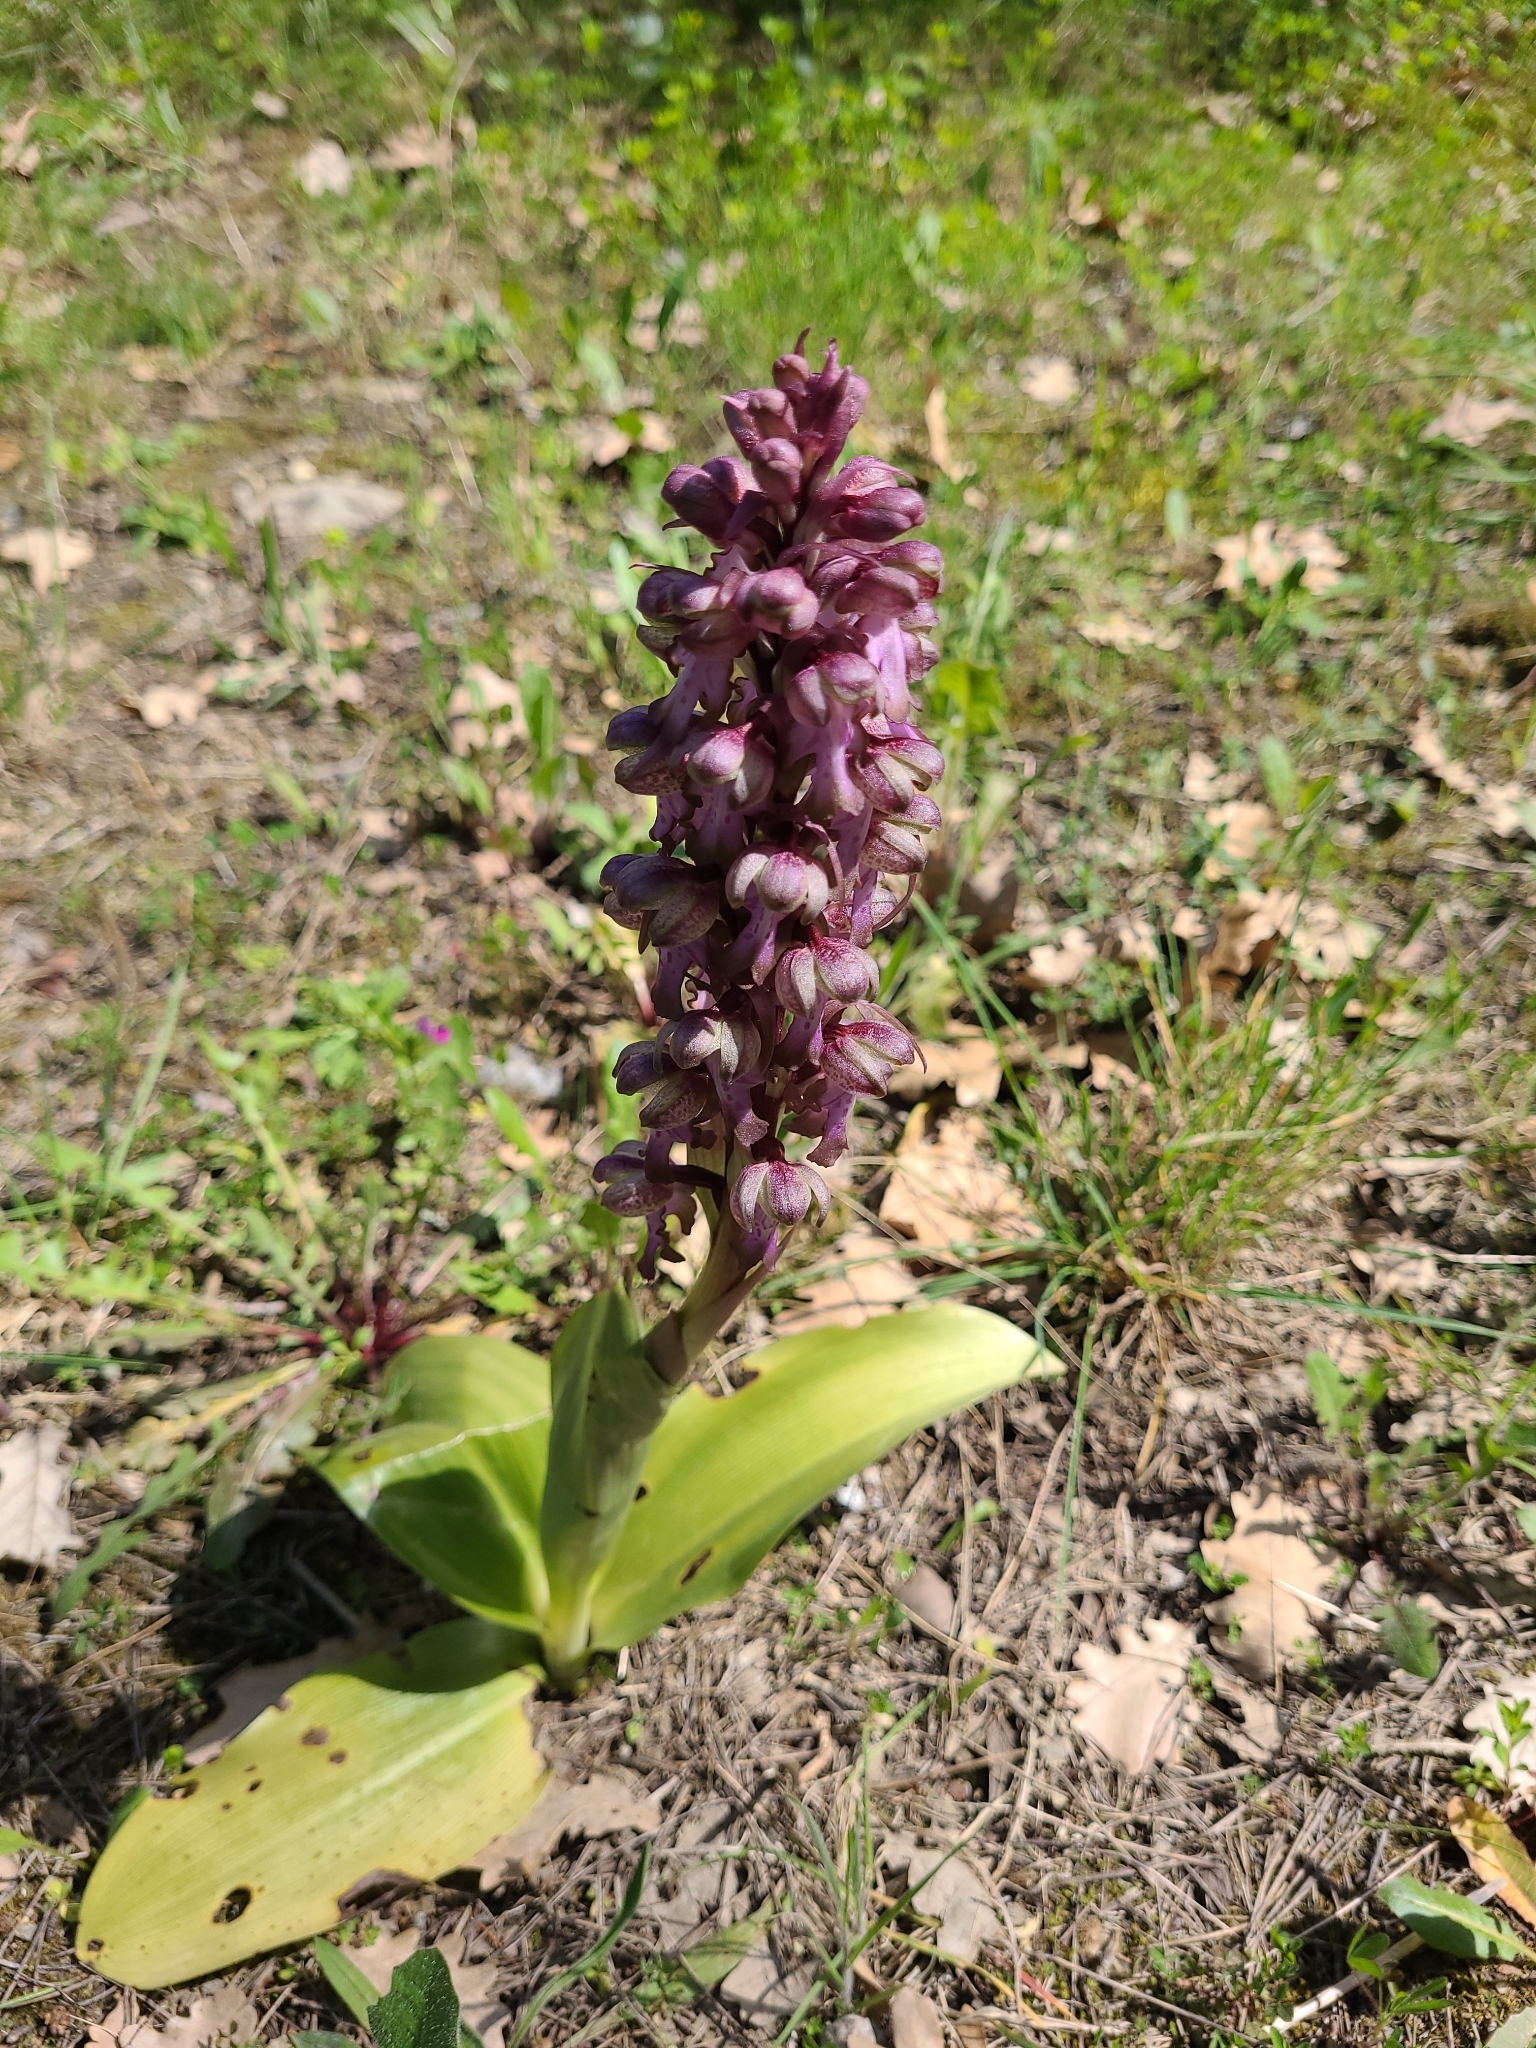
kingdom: Plantae
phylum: Tracheophyta
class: Liliopsida
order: Asparagales
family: Orchidaceae
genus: Himantoglossum
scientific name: Himantoglossum robertianum
